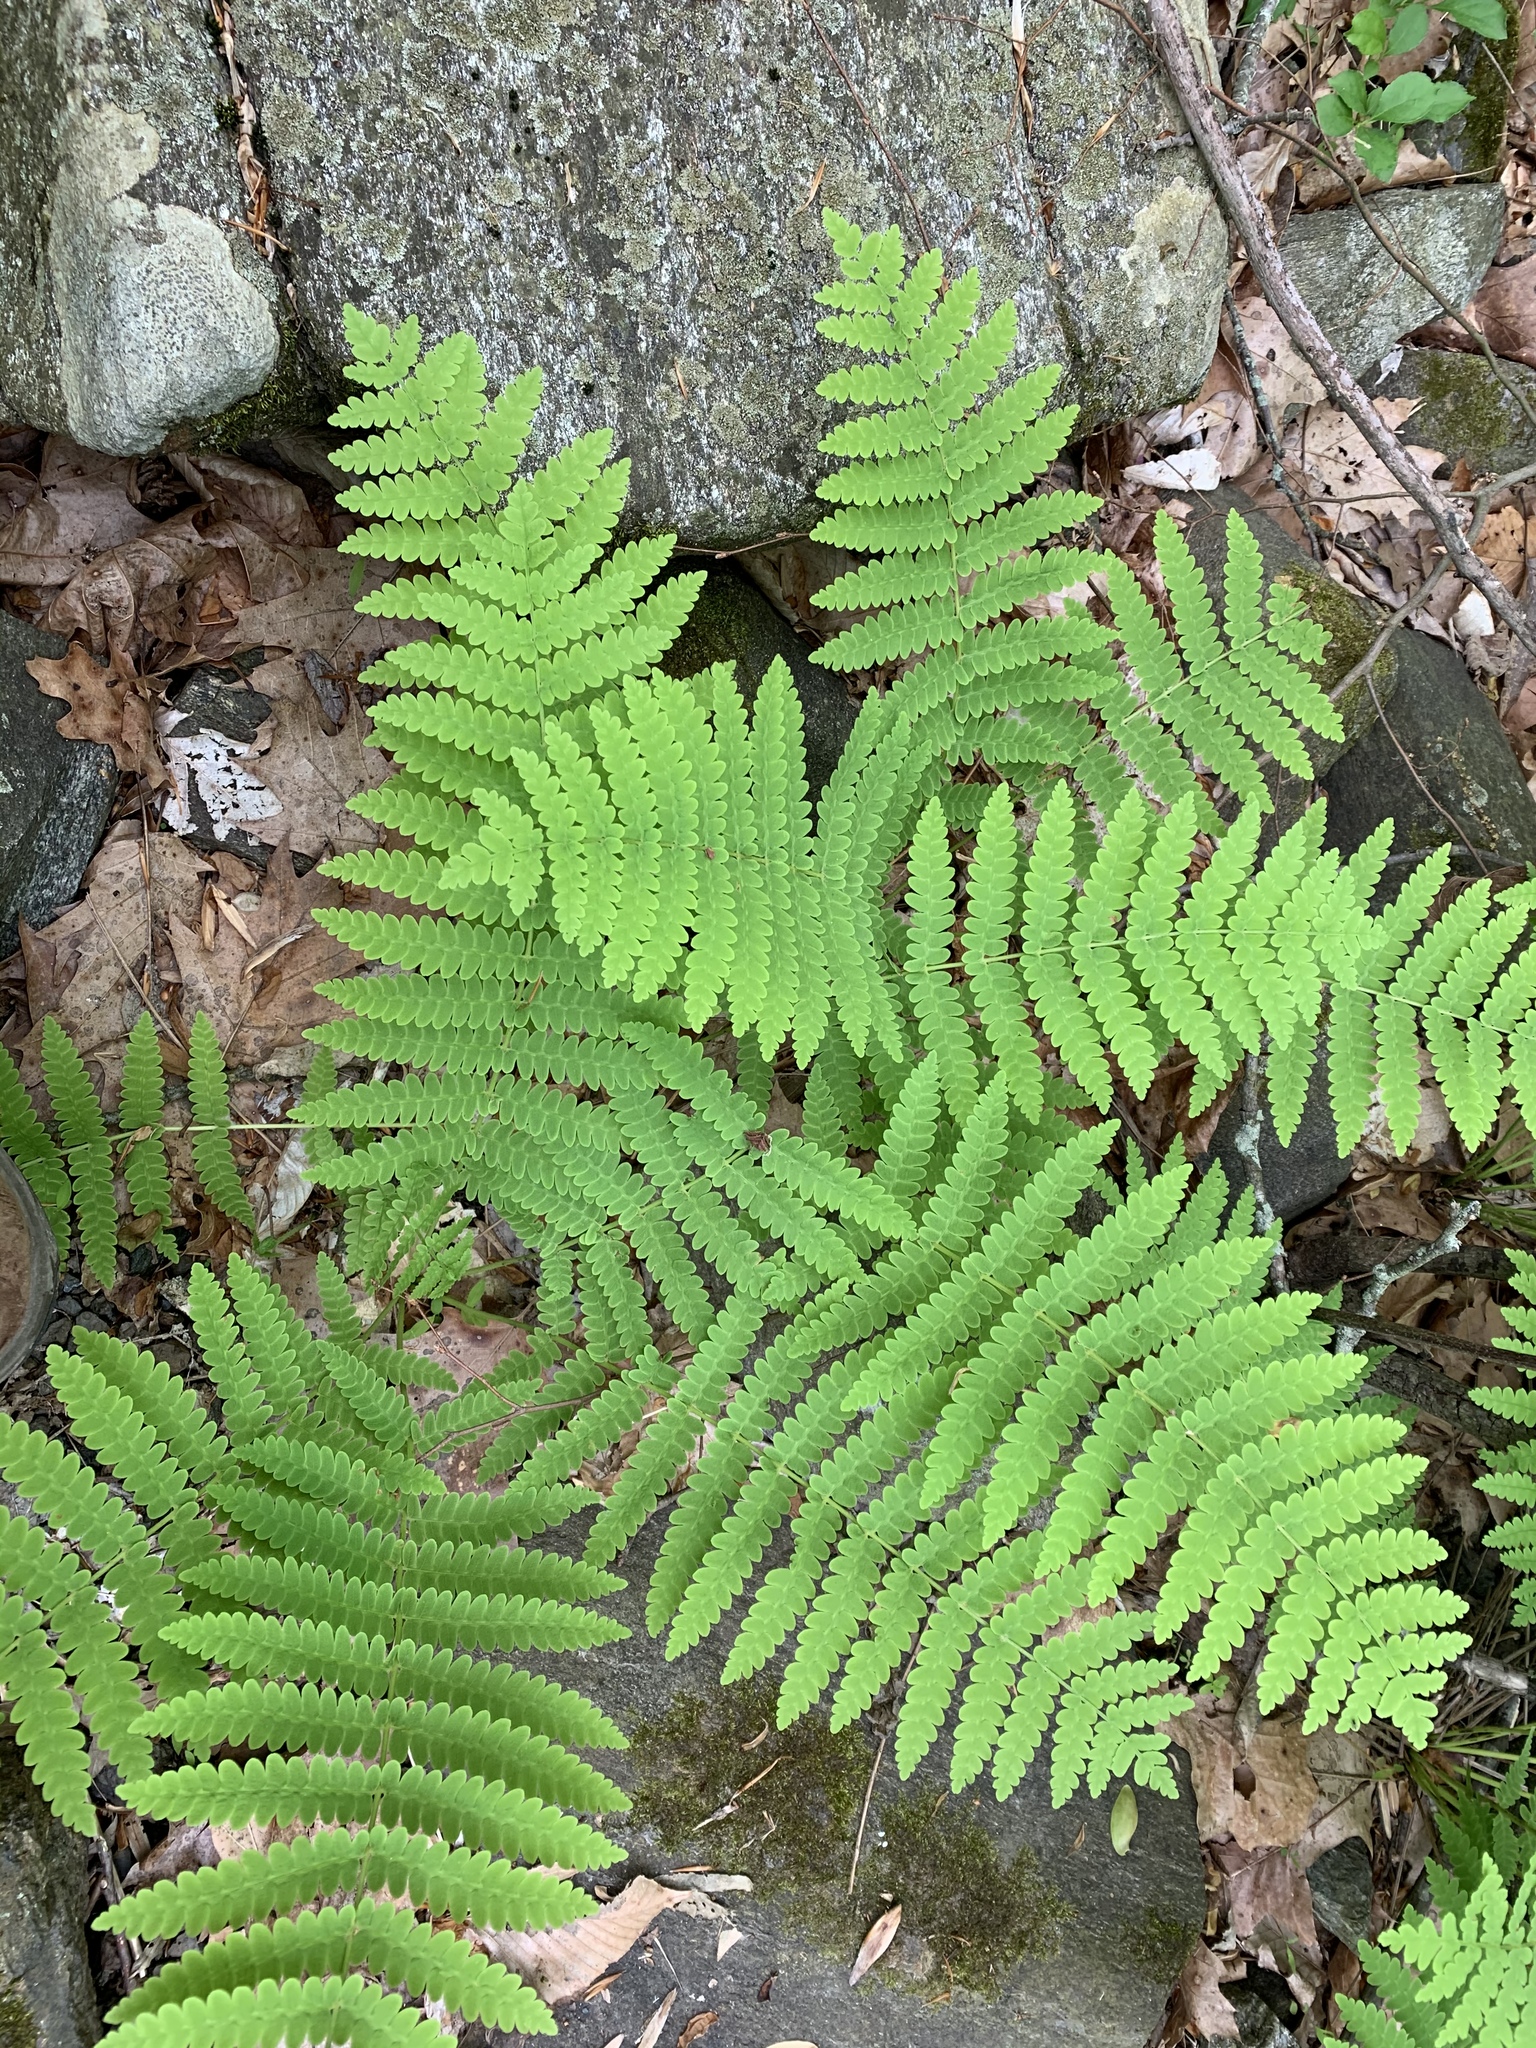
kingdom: Plantae
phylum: Tracheophyta
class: Polypodiopsida
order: Osmundales
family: Osmundaceae
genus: Claytosmunda
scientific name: Claytosmunda claytoniana
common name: Clayton's fern
